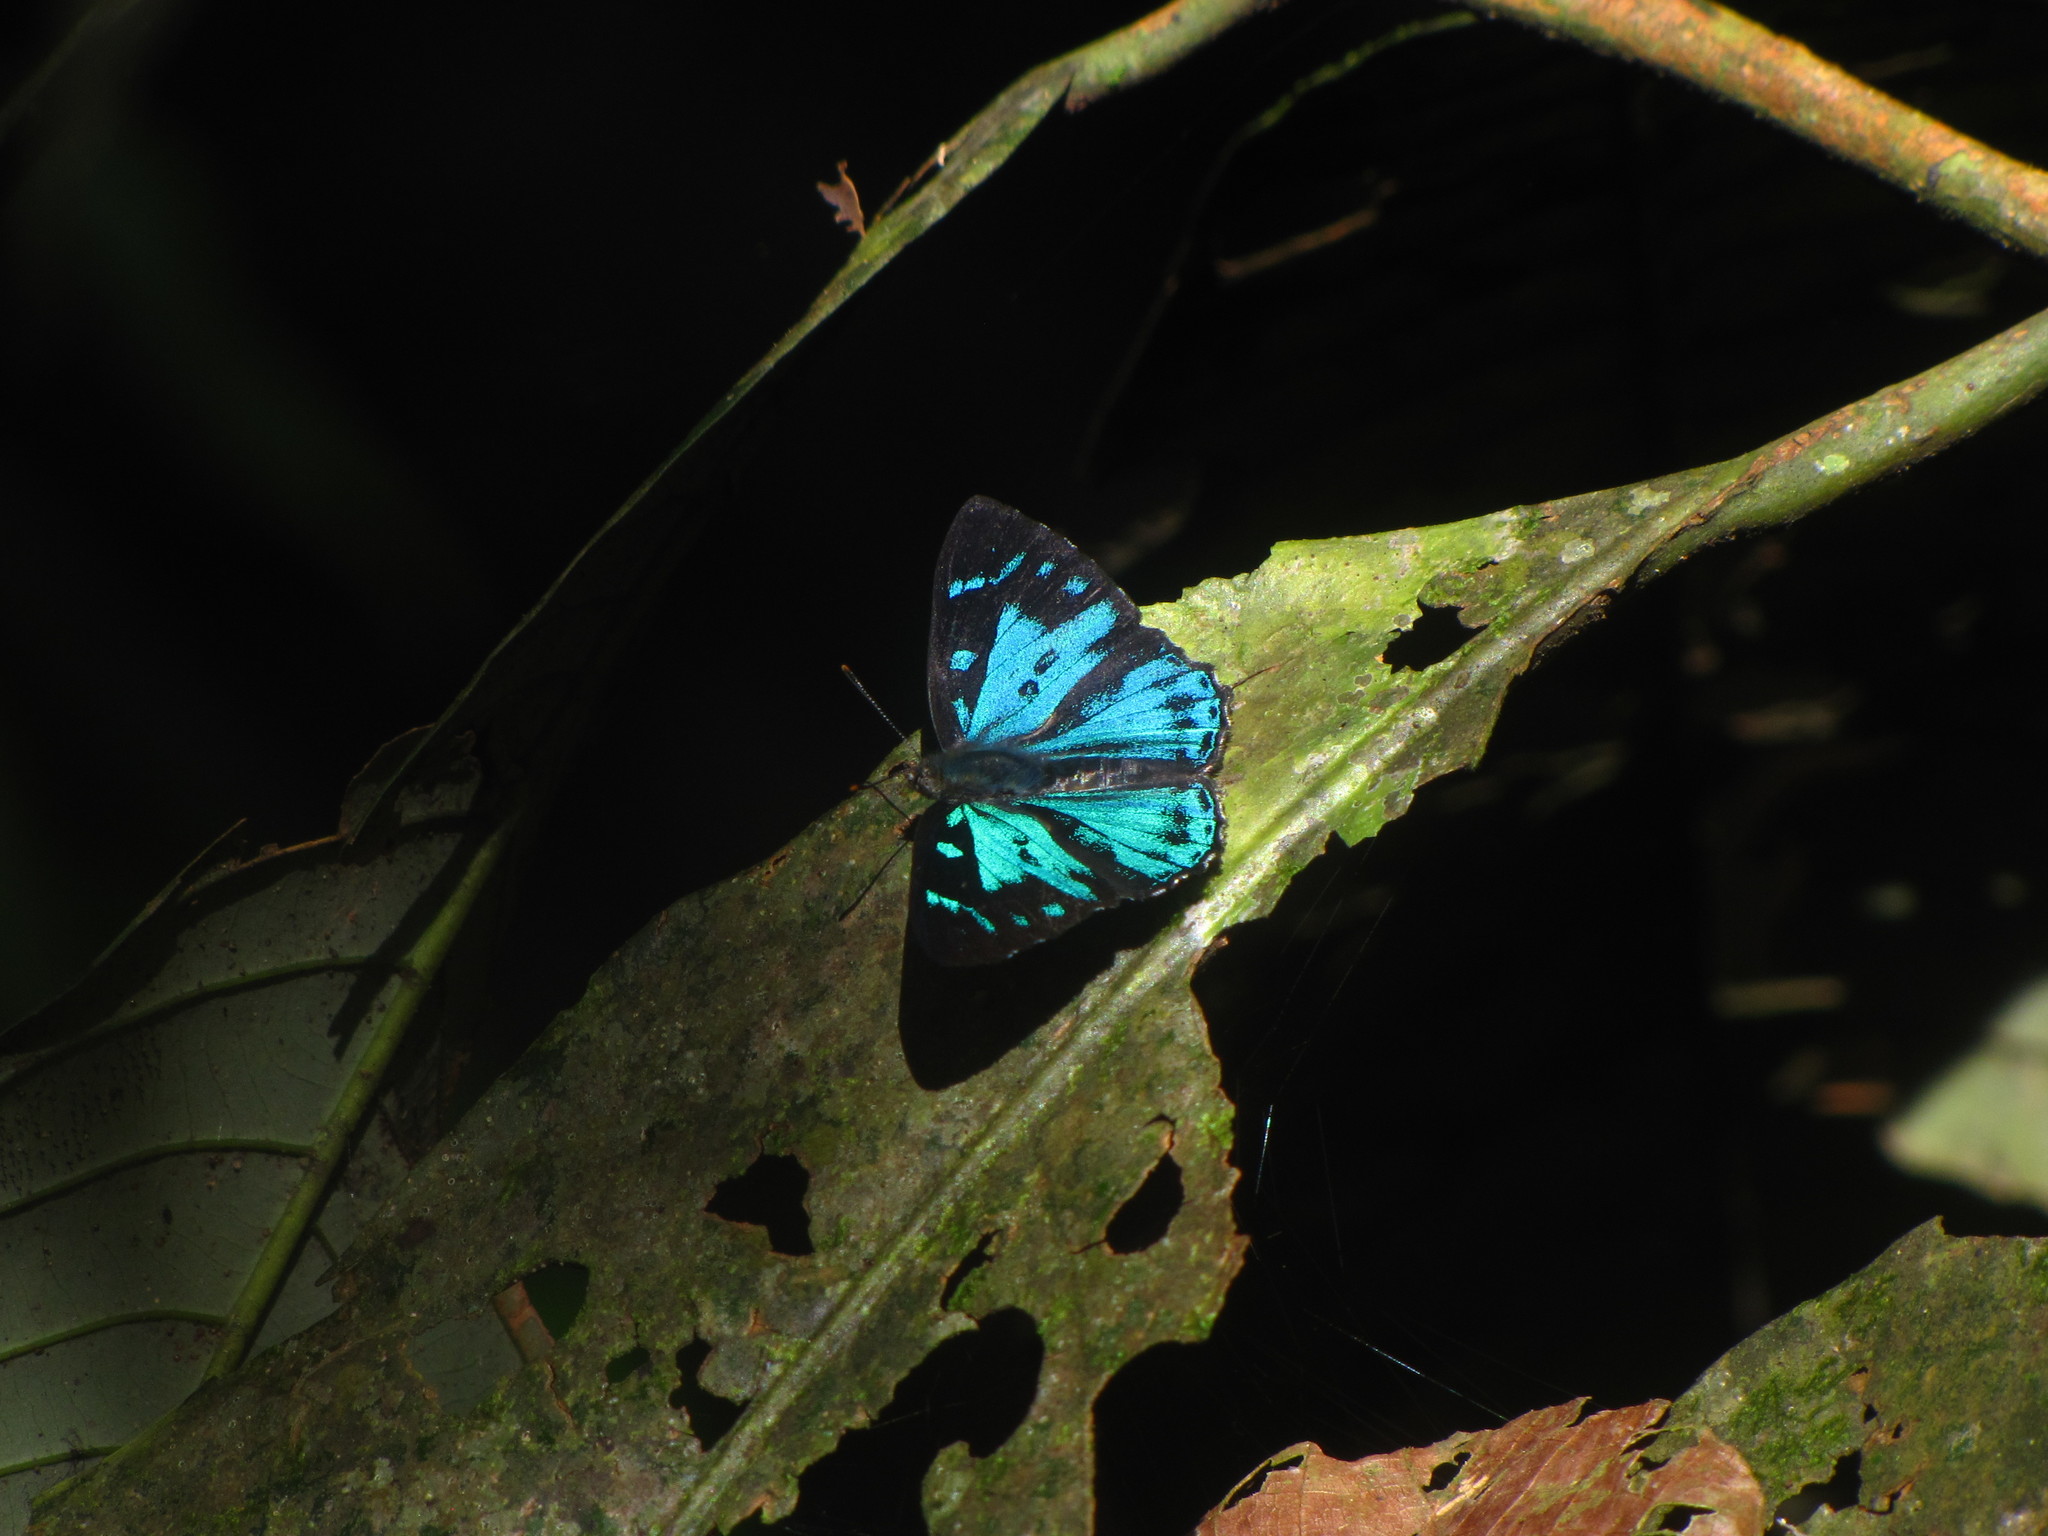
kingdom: Animalia
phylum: Arthropoda
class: Insecta
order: Lepidoptera
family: Lycaenidae
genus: Poritia
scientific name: Poritia hewitsoni
